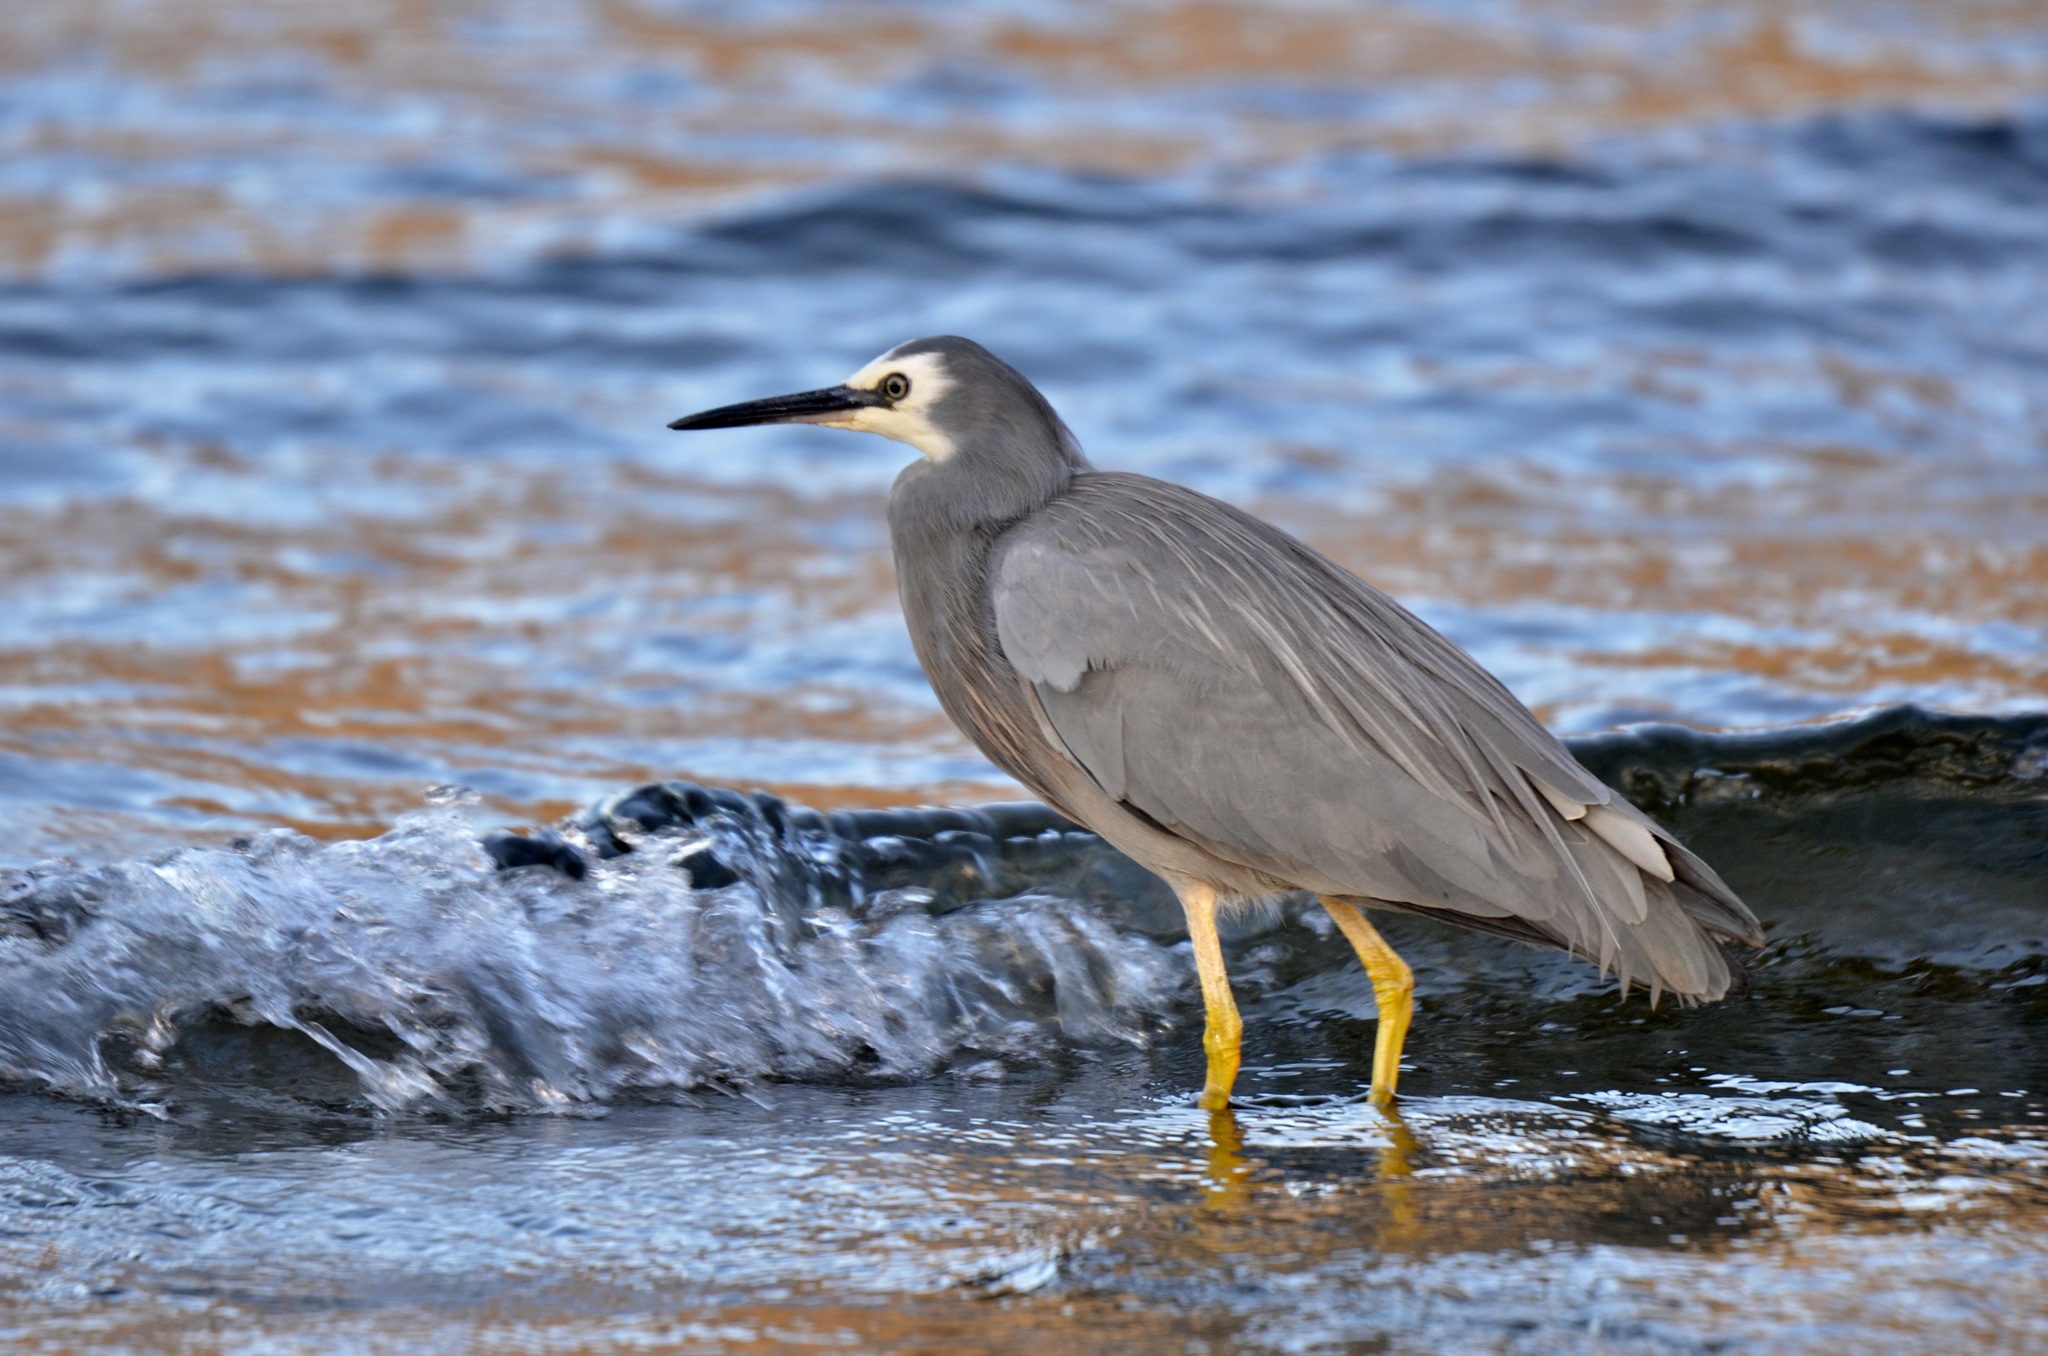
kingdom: Animalia
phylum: Chordata
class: Aves
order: Pelecaniformes
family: Ardeidae
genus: Egretta
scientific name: Egretta novaehollandiae
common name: White-faced heron
